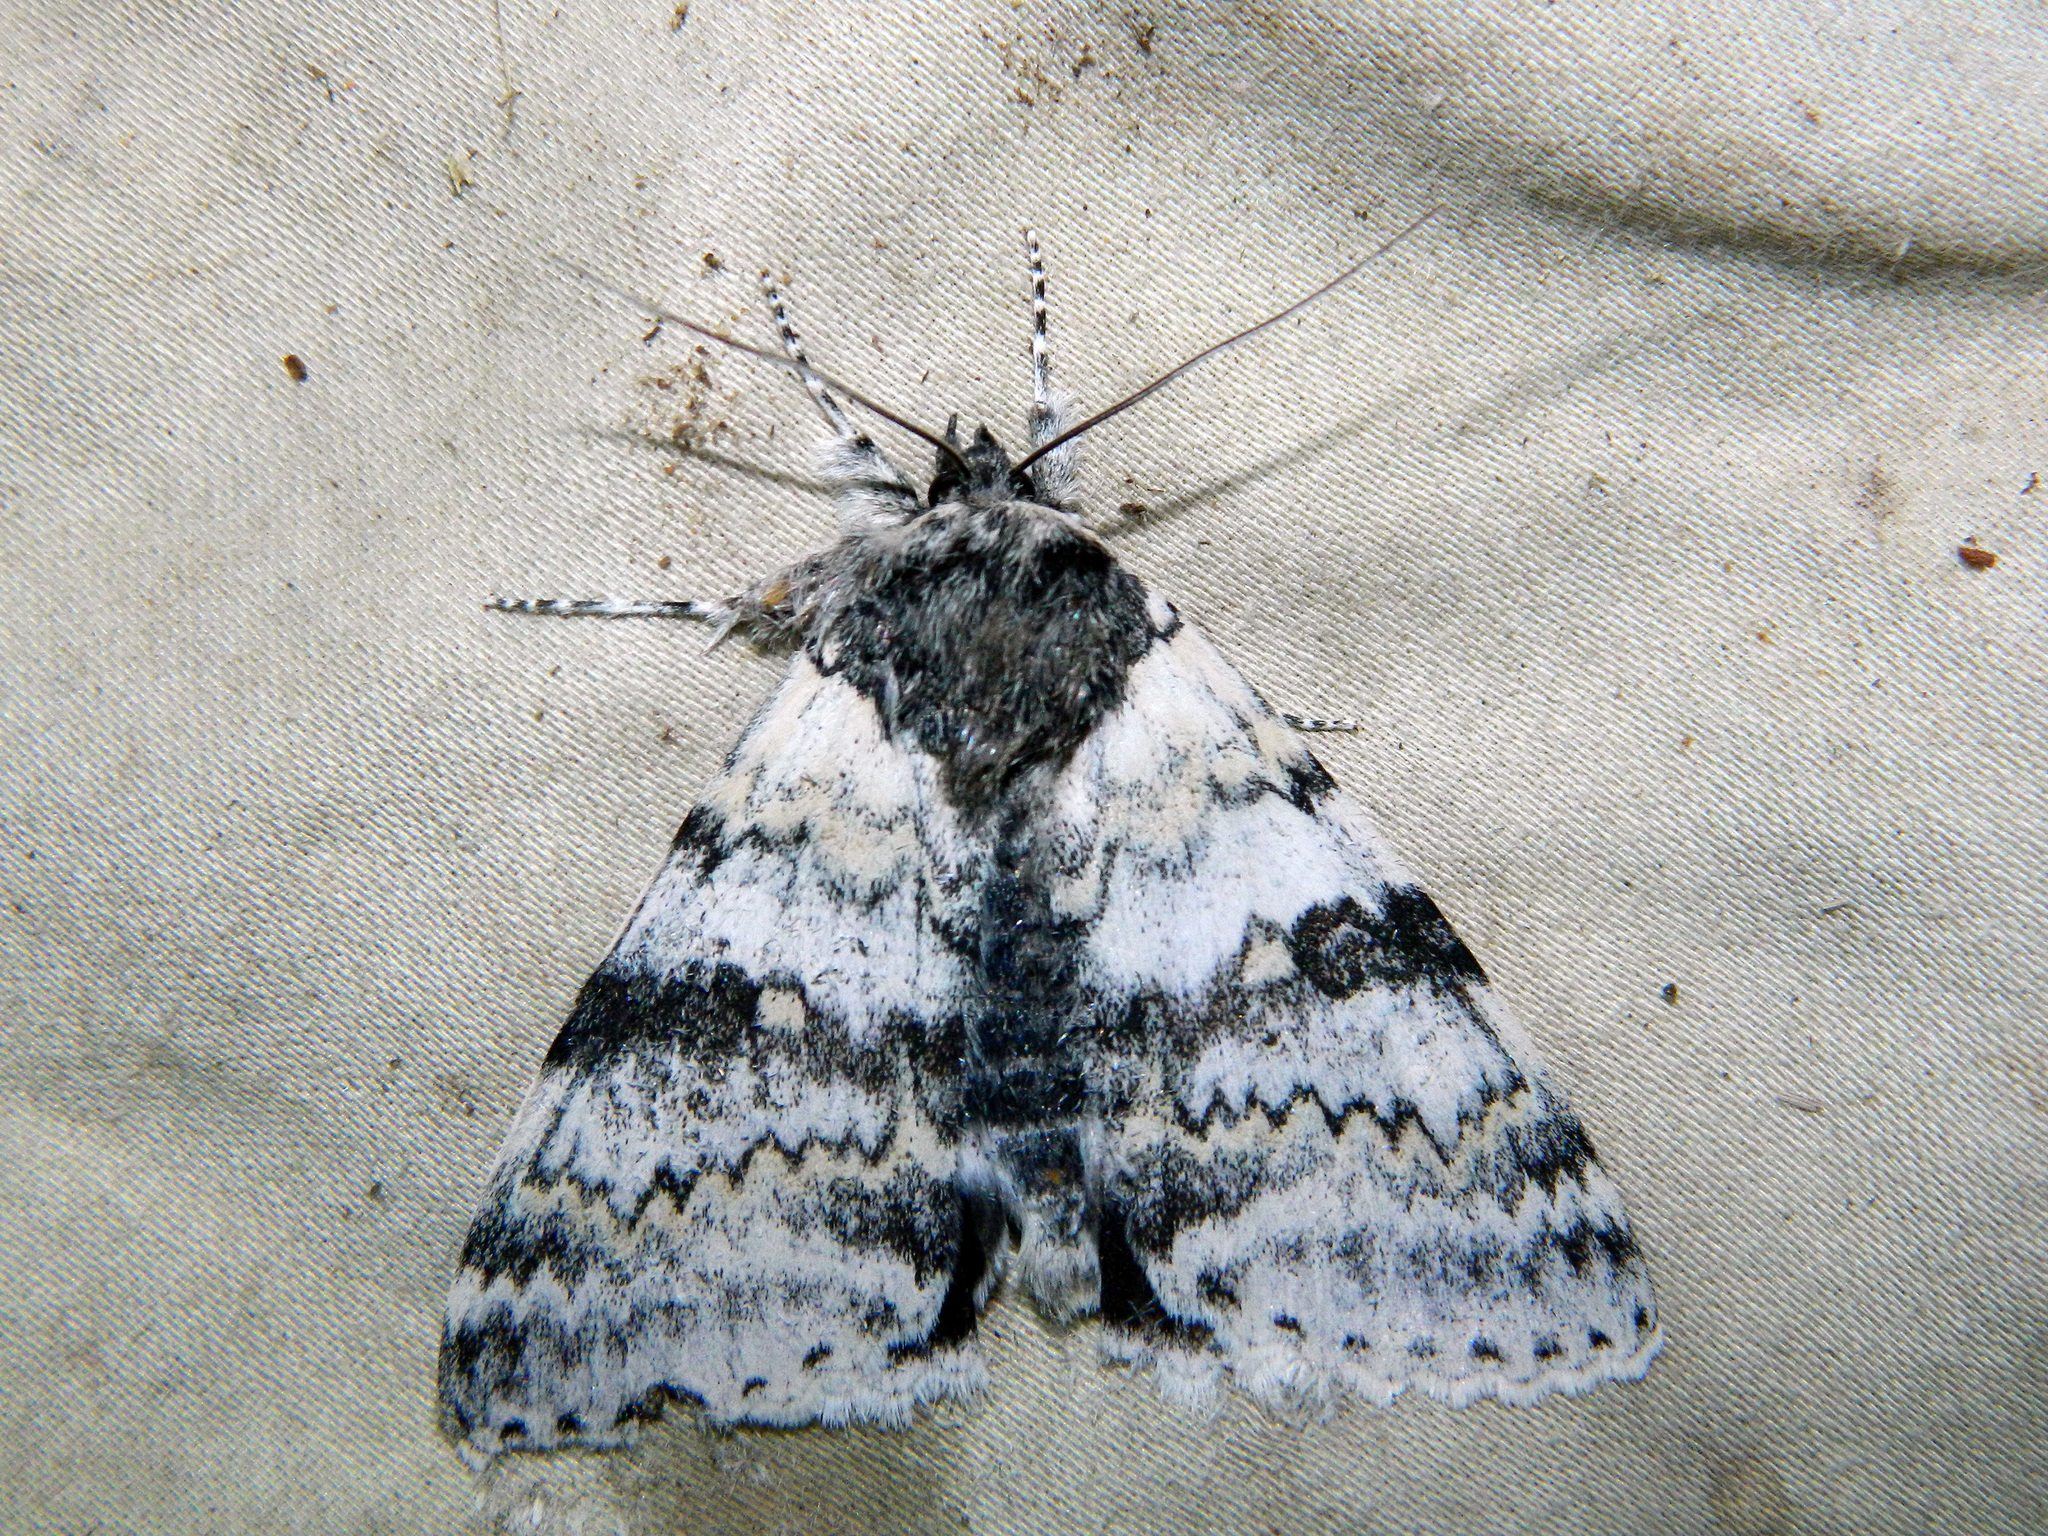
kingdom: Animalia
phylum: Arthropoda
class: Insecta
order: Lepidoptera
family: Erebidae
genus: Catocala
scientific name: Catocala relicta
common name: White underwing
